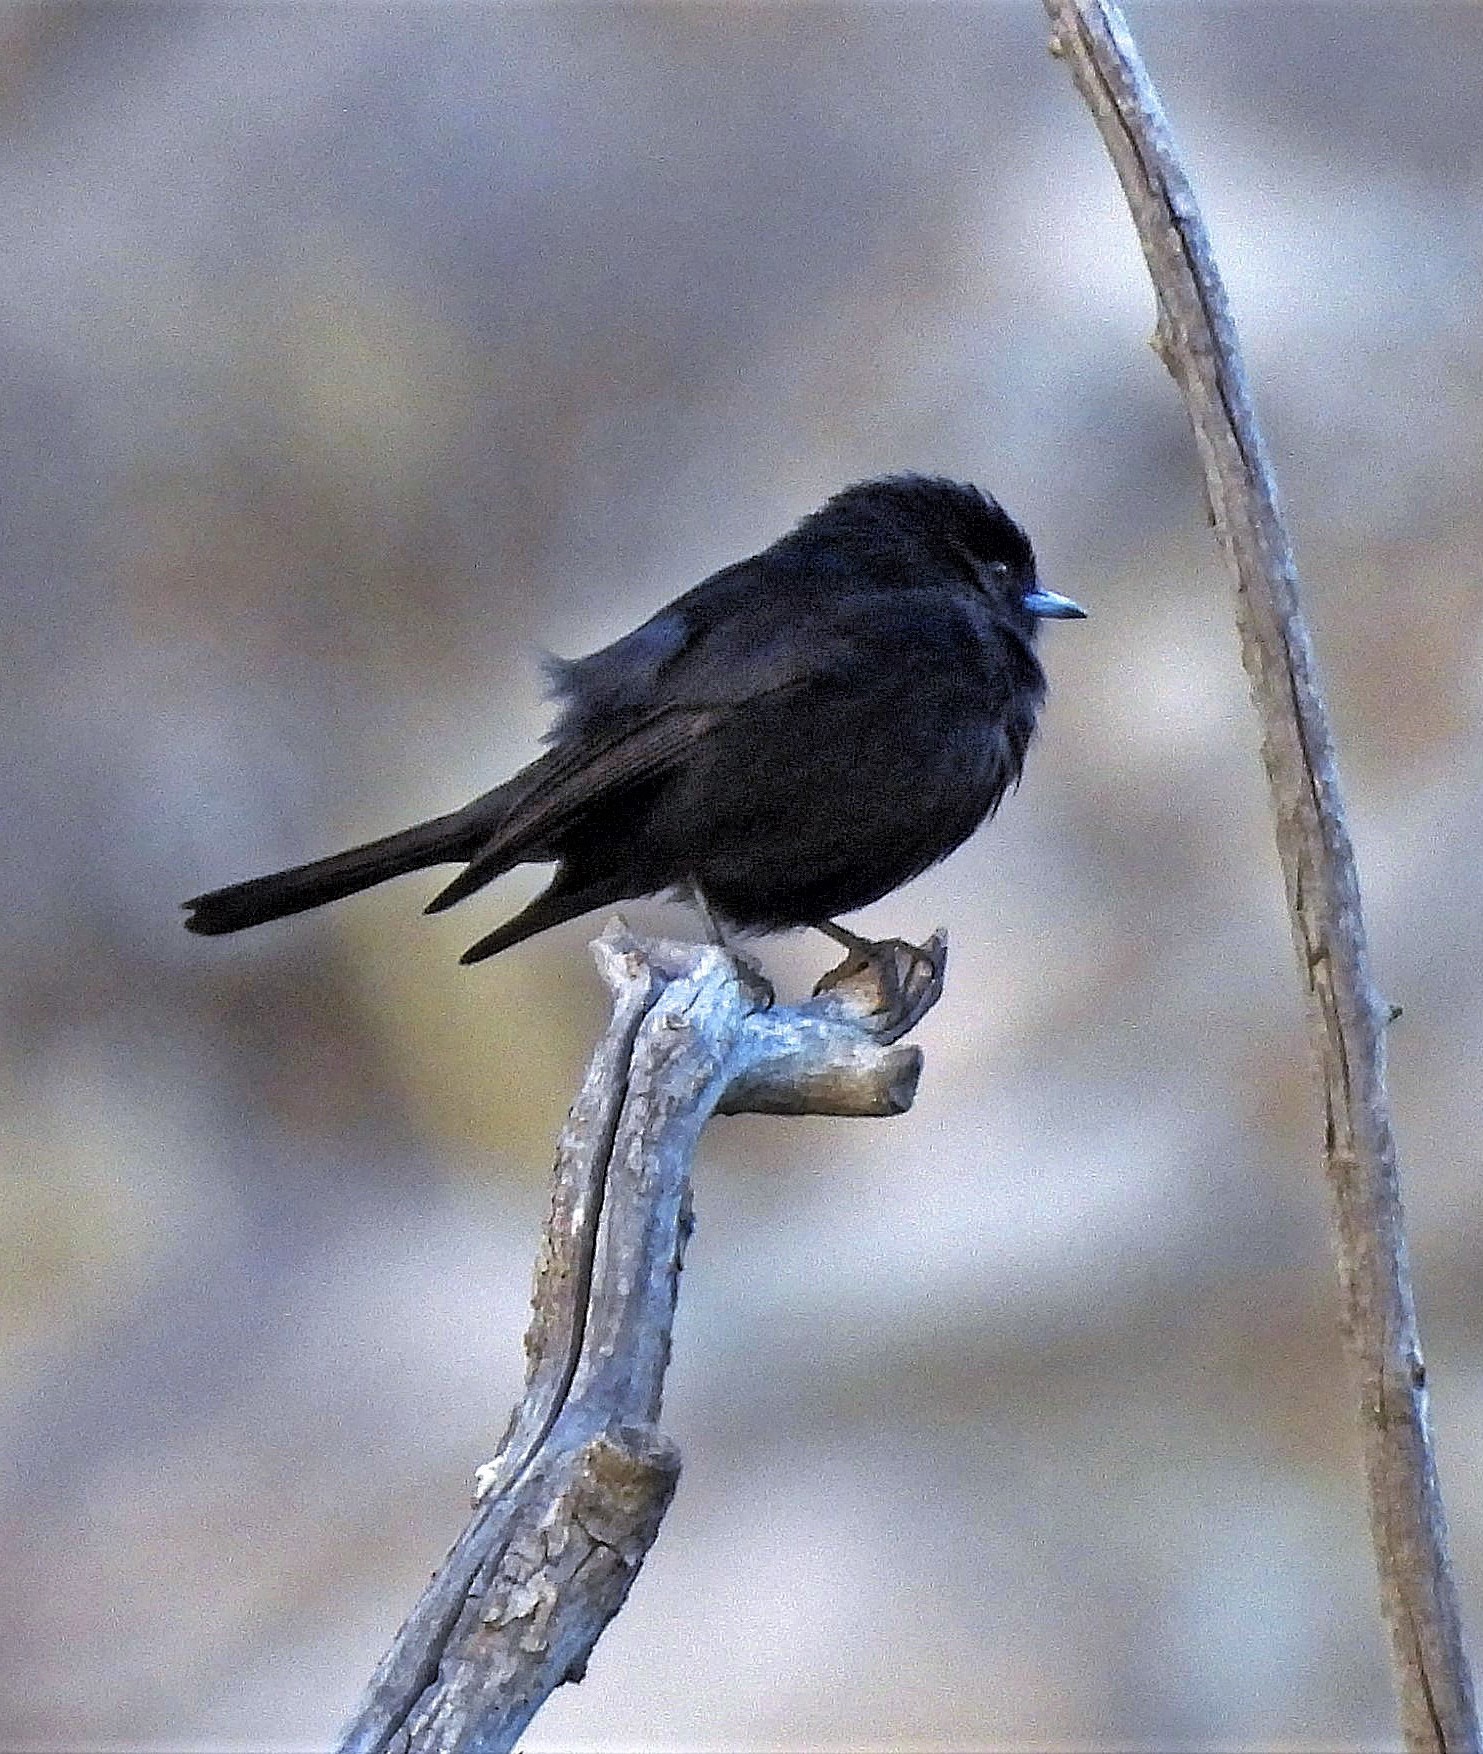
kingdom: Animalia
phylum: Chordata
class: Aves
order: Passeriformes
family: Tyrannidae
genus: Knipolegus
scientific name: Knipolegus aterrimus
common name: White-winged black tyrant
